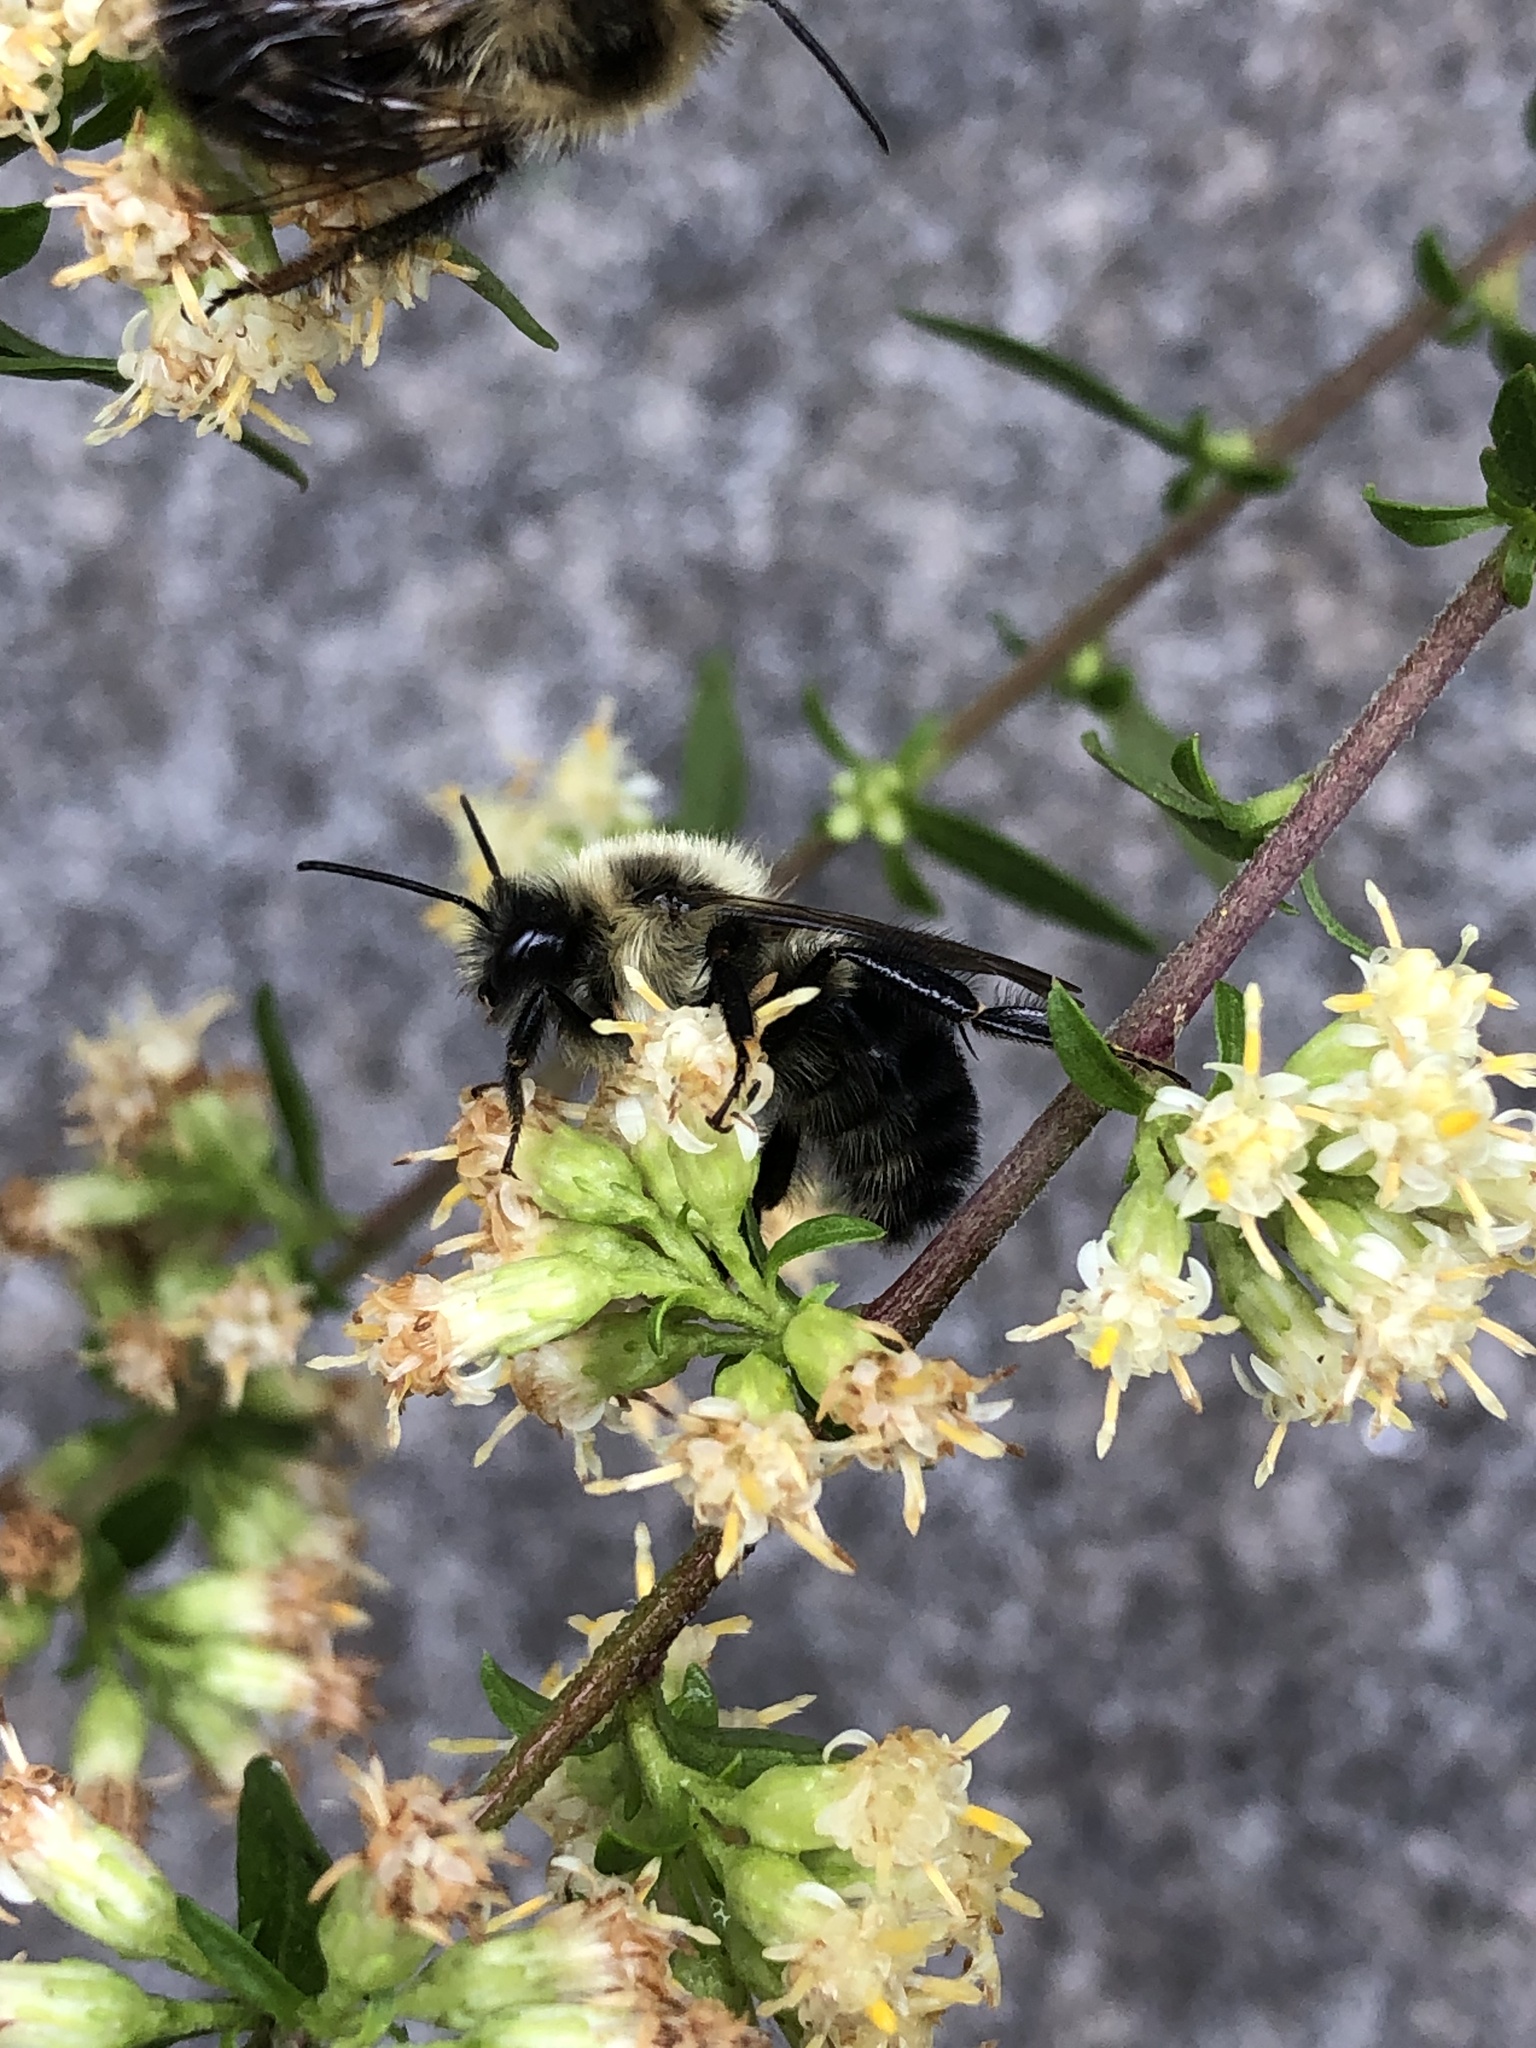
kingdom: Animalia
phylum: Arthropoda
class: Insecta
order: Hymenoptera
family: Apidae
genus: Bombus
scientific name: Bombus impatiens
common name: Common eastern bumble bee
